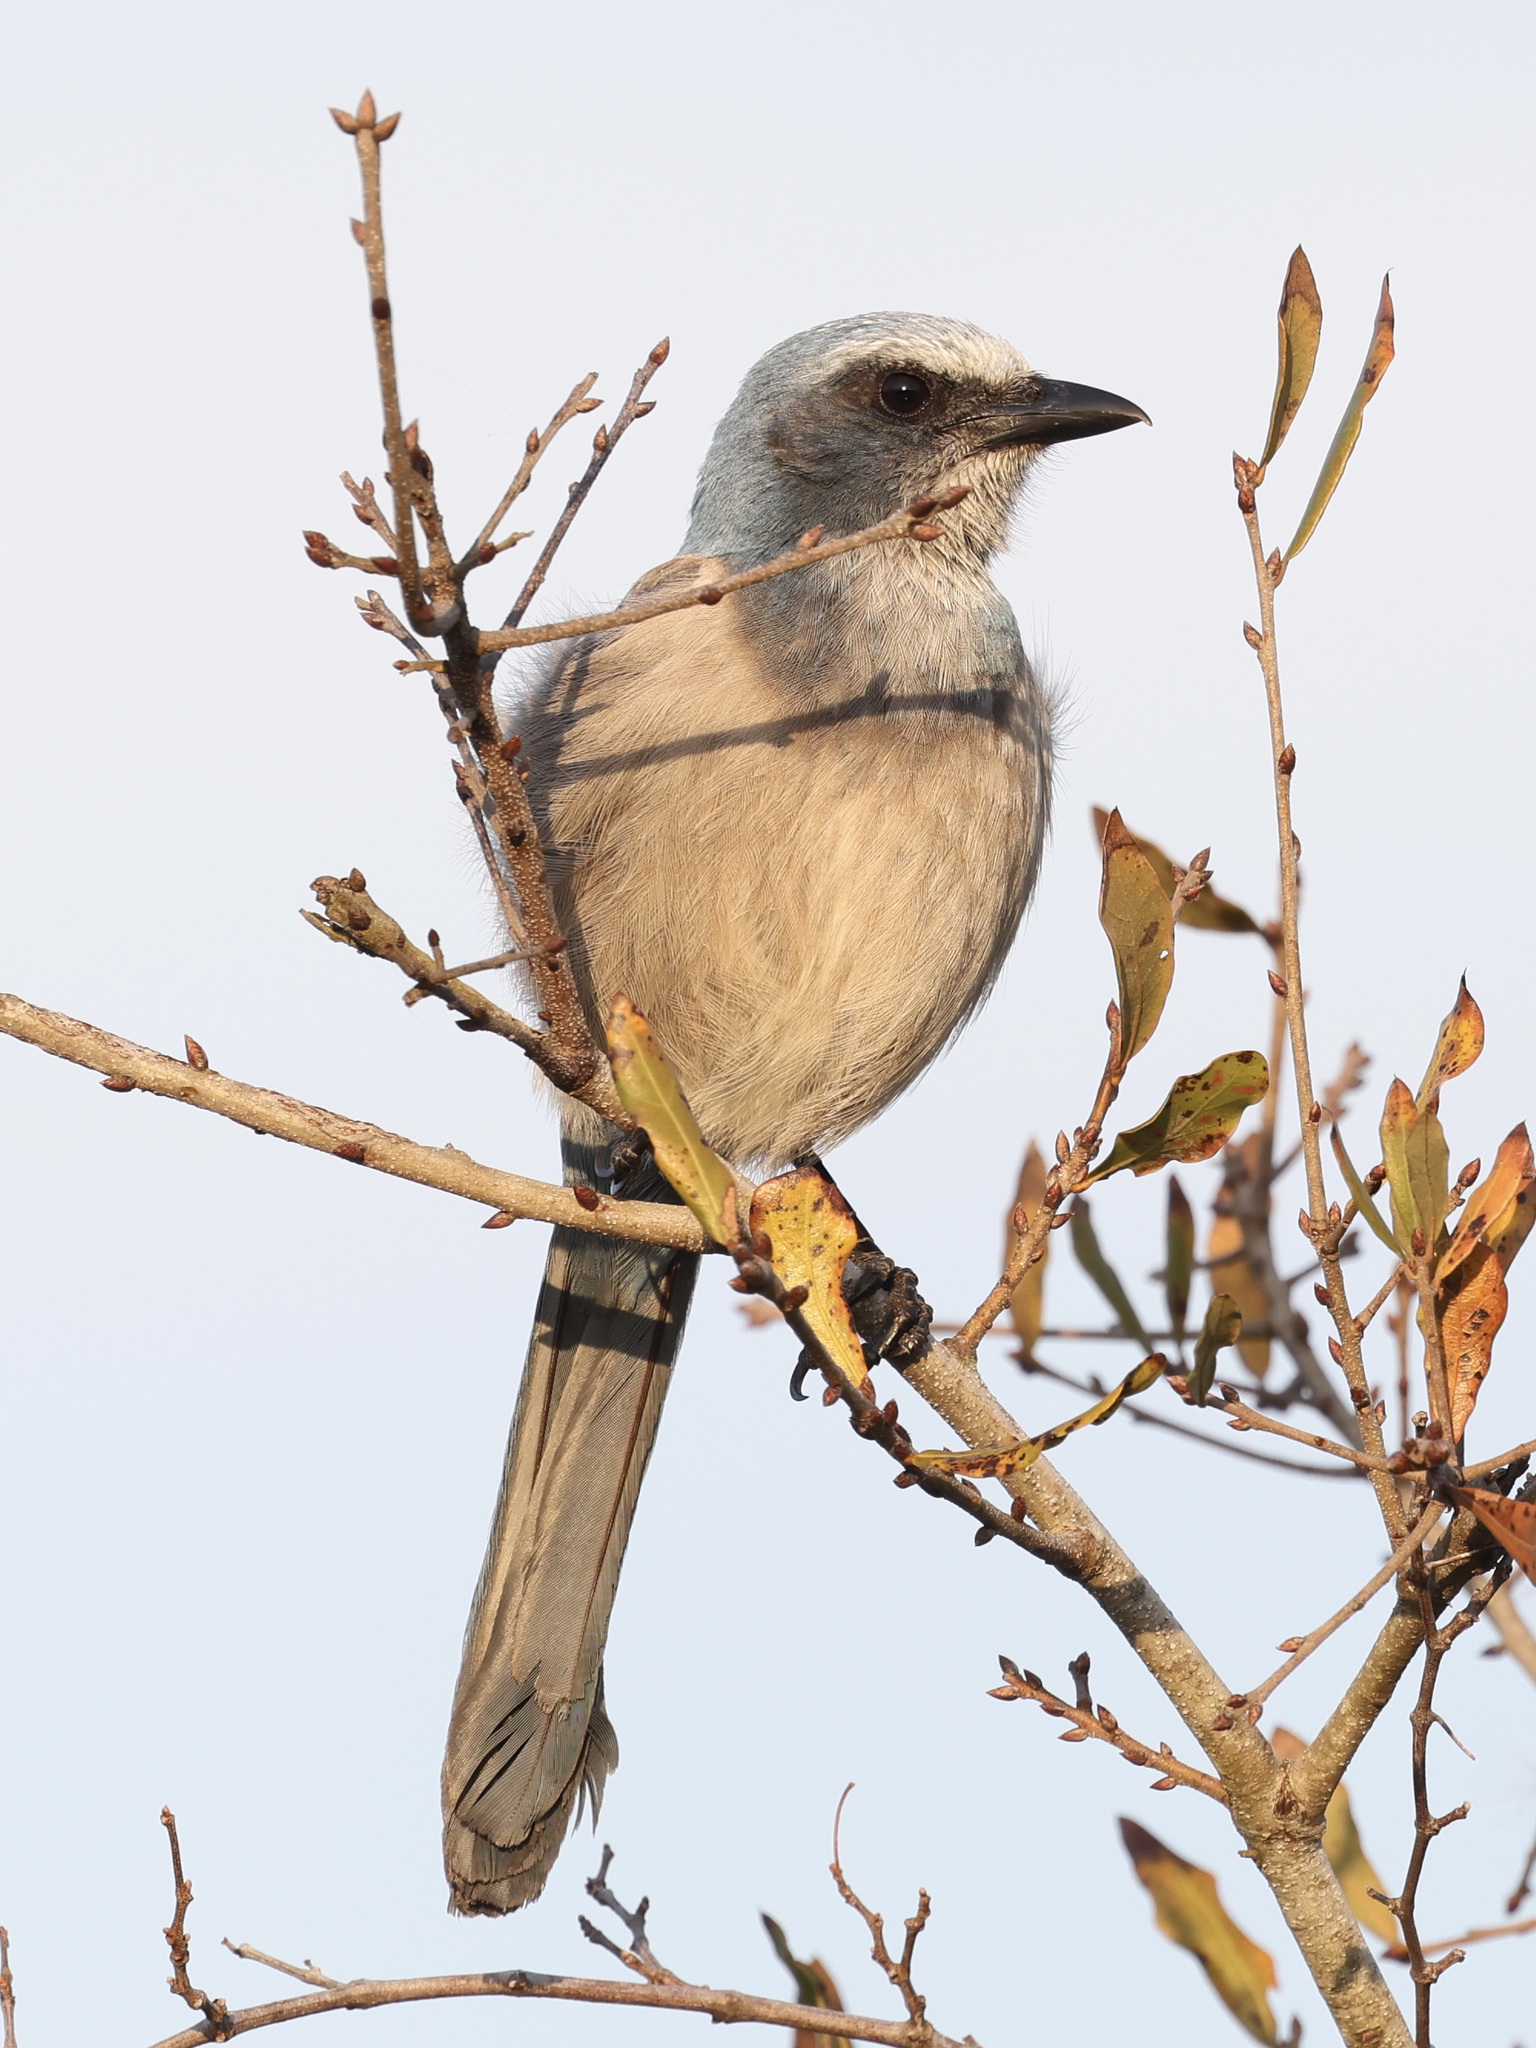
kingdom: Animalia
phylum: Chordata
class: Aves
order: Passeriformes
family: Corvidae
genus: Aphelocoma
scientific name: Aphelocoma coerulescens
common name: Florida scrub jay
